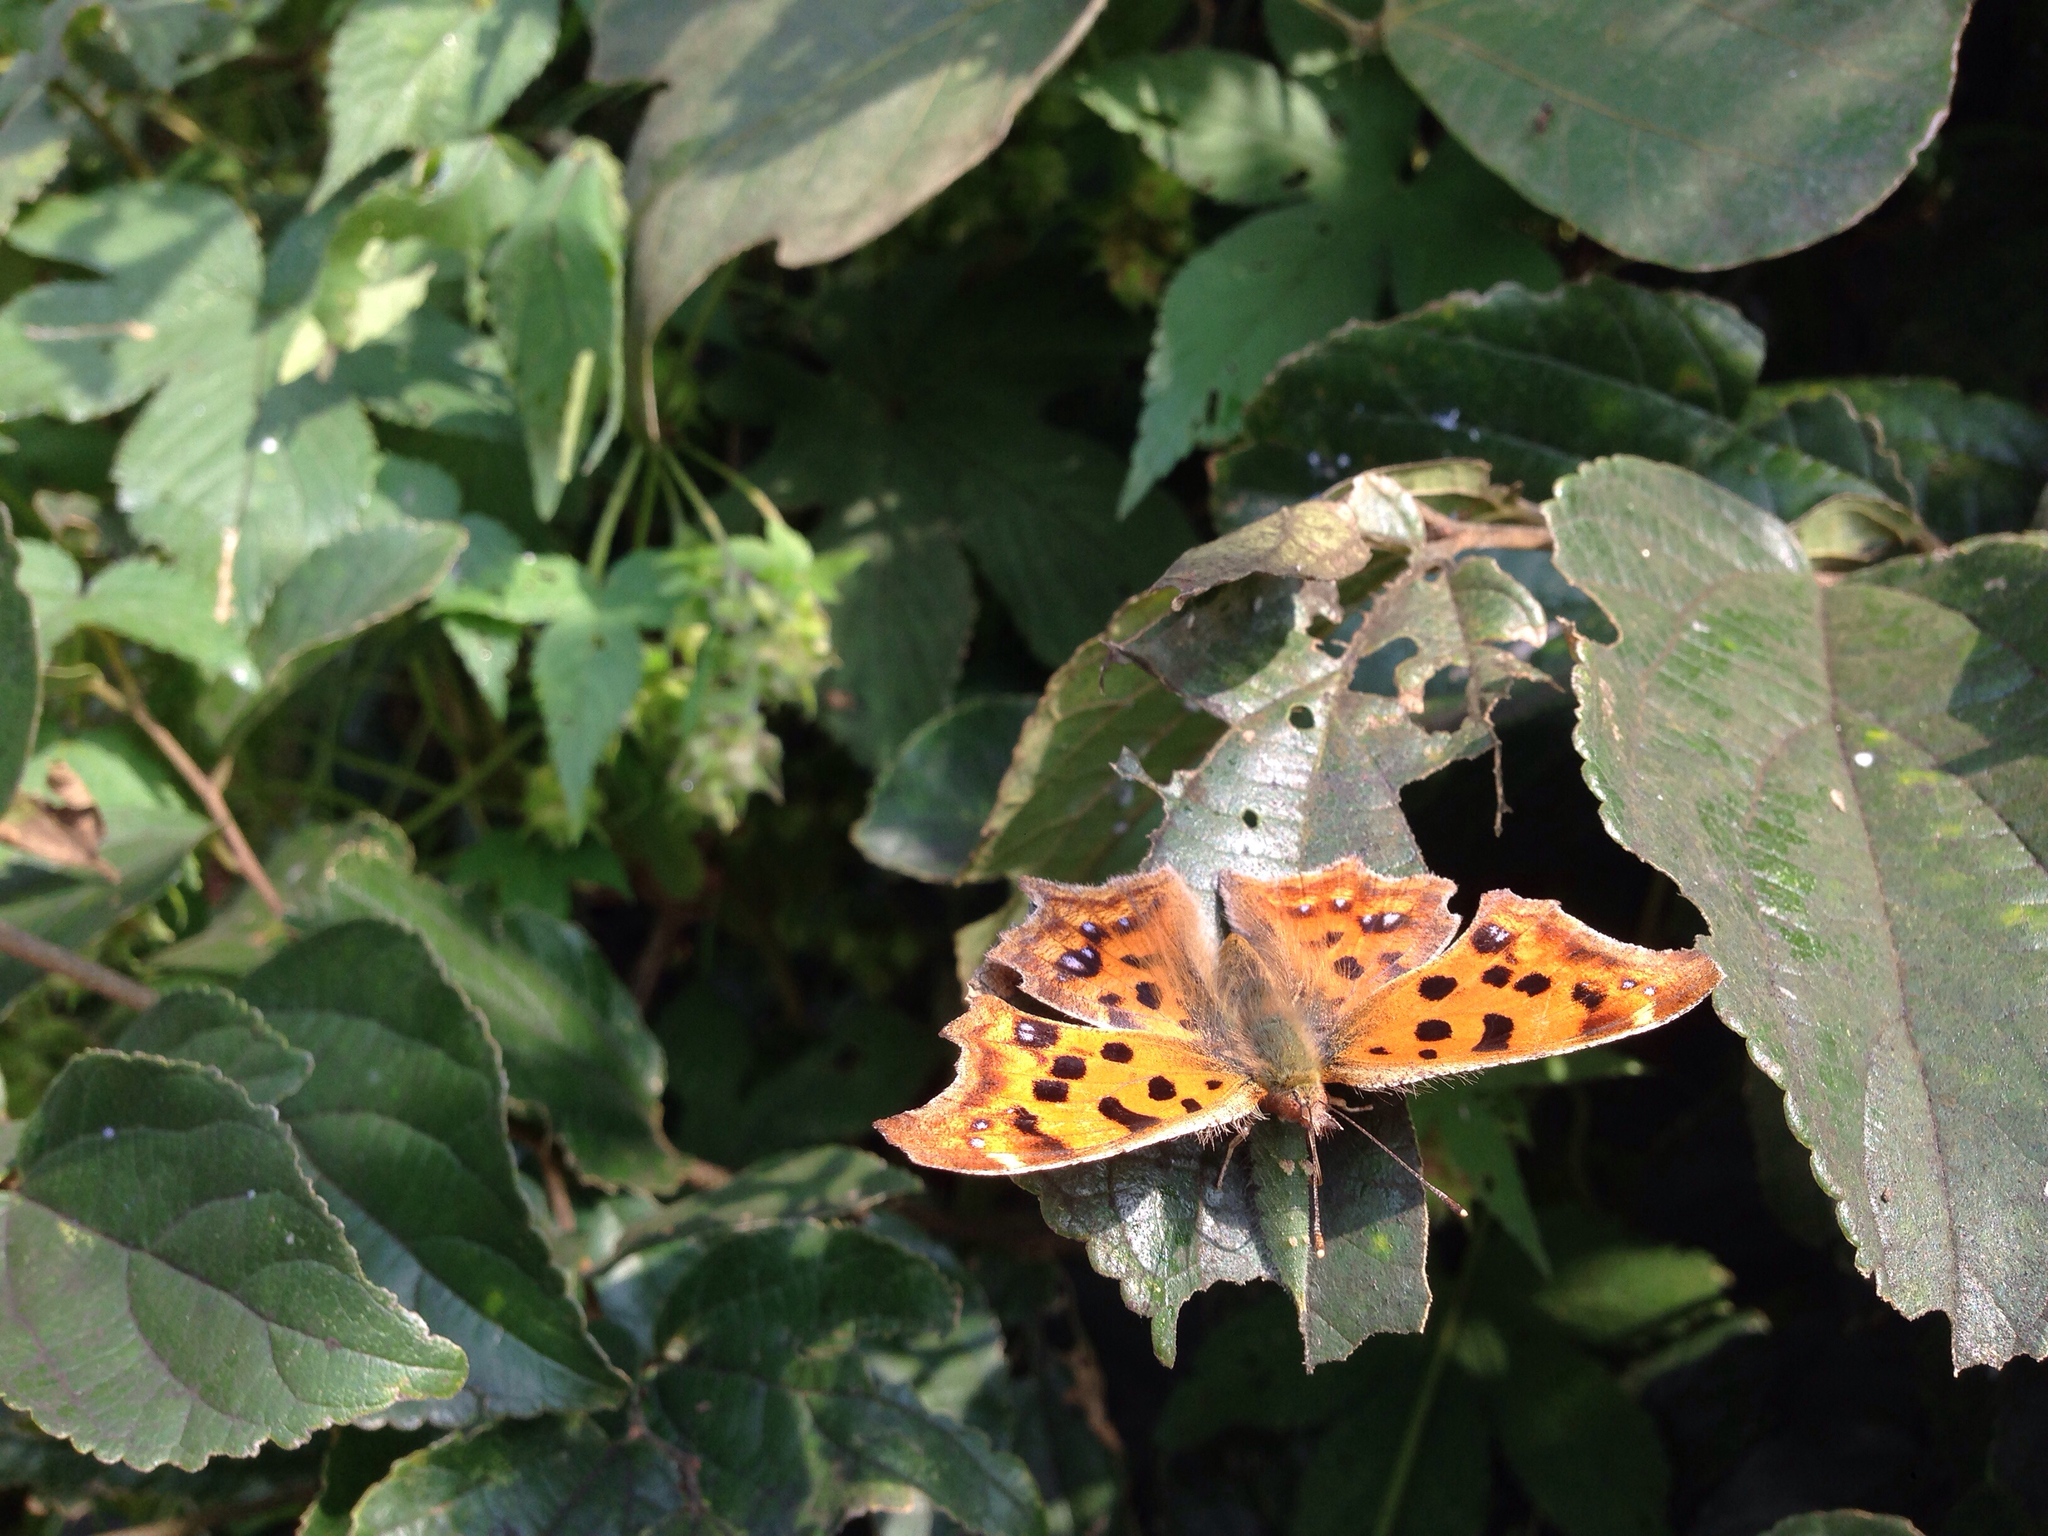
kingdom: Animalia
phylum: Arthropoda
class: Insecta
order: Lepidoptera
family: Nymphalidae
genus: Polygonia
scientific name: Polygonia c-aureum
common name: Asian comma
